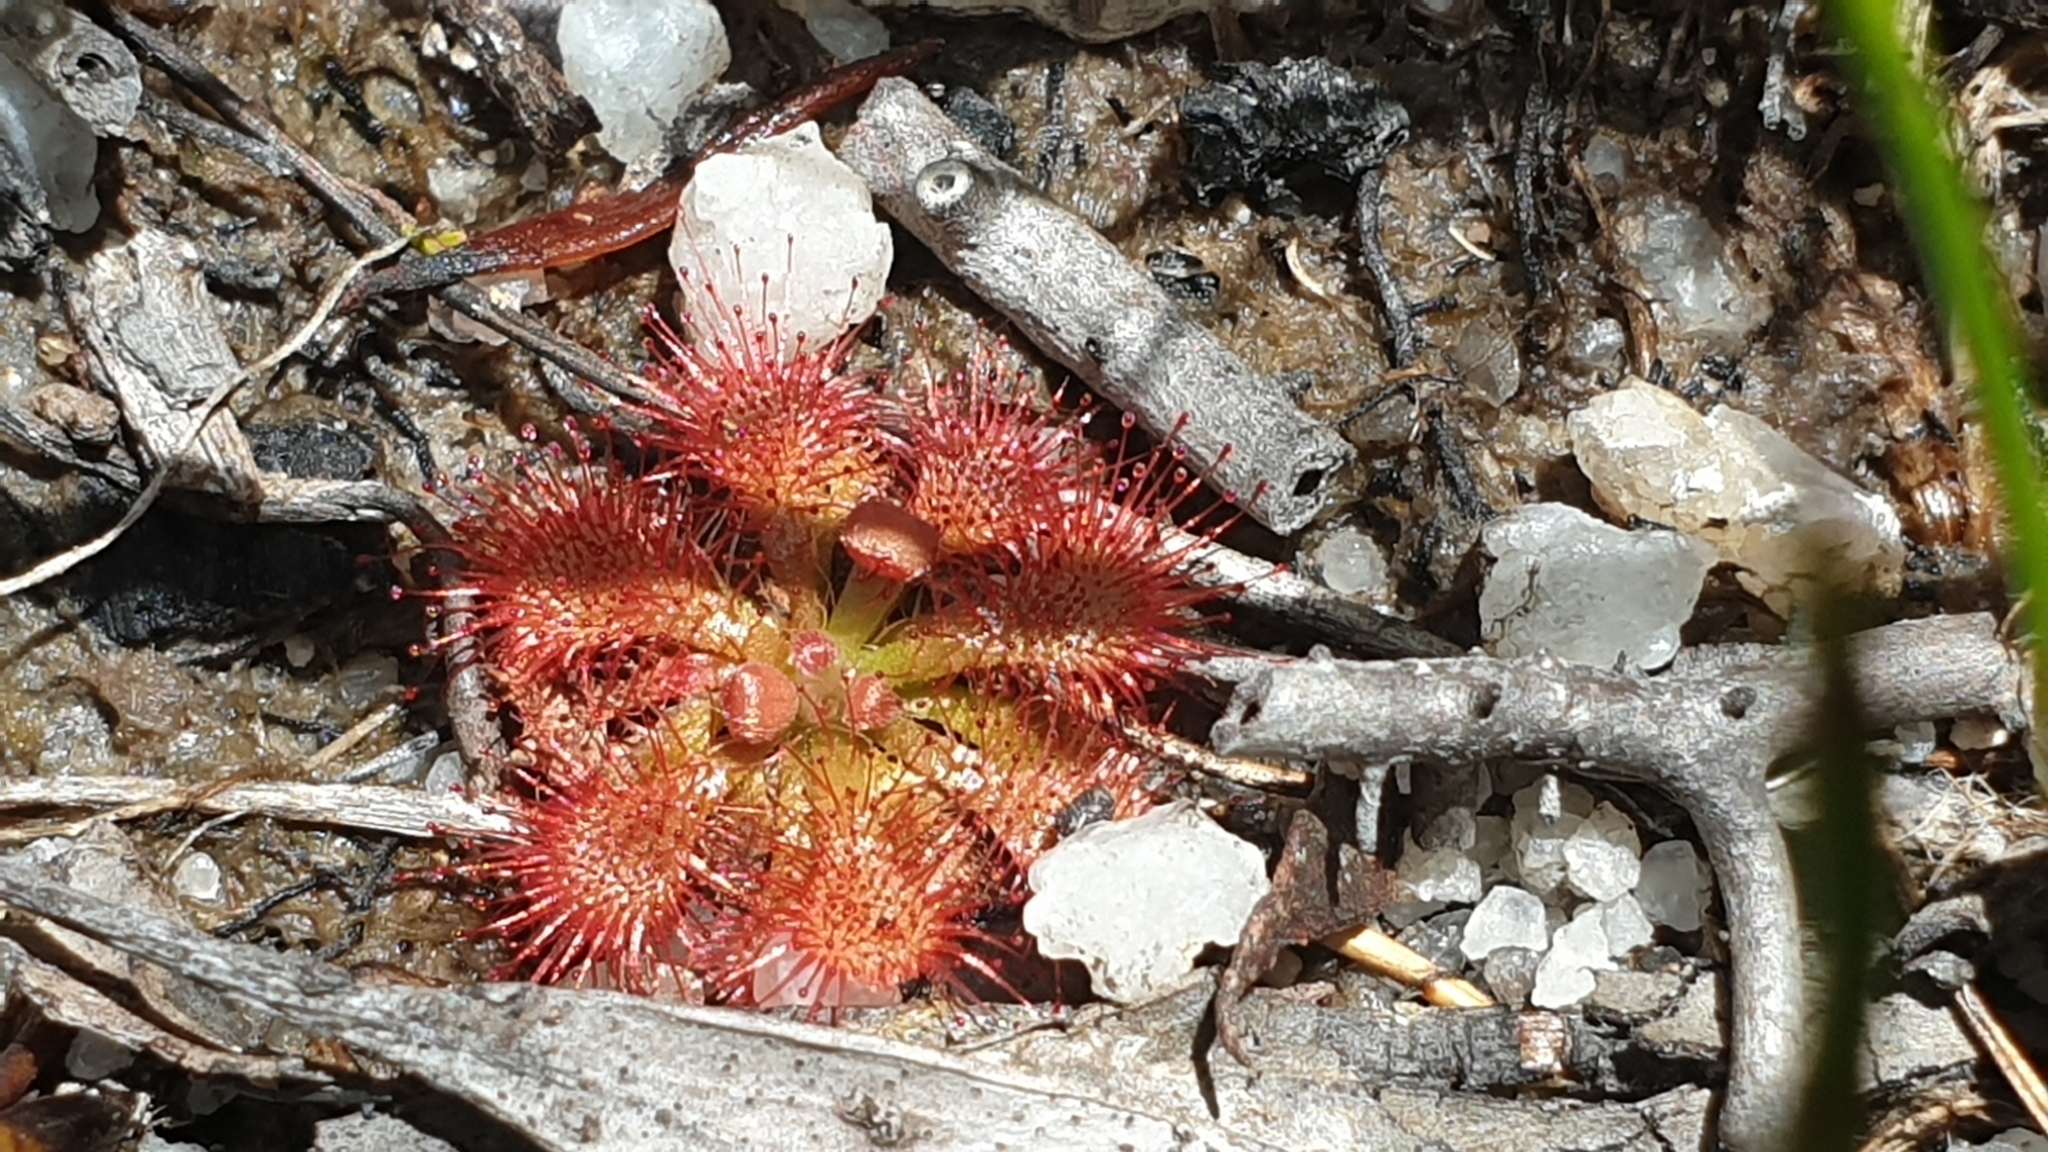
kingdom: Plantae
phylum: Tracheophyta
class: Magnoliopsida
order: Caryophyllales
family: Droseraceae
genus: Drosera
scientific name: Drosera spatulata
